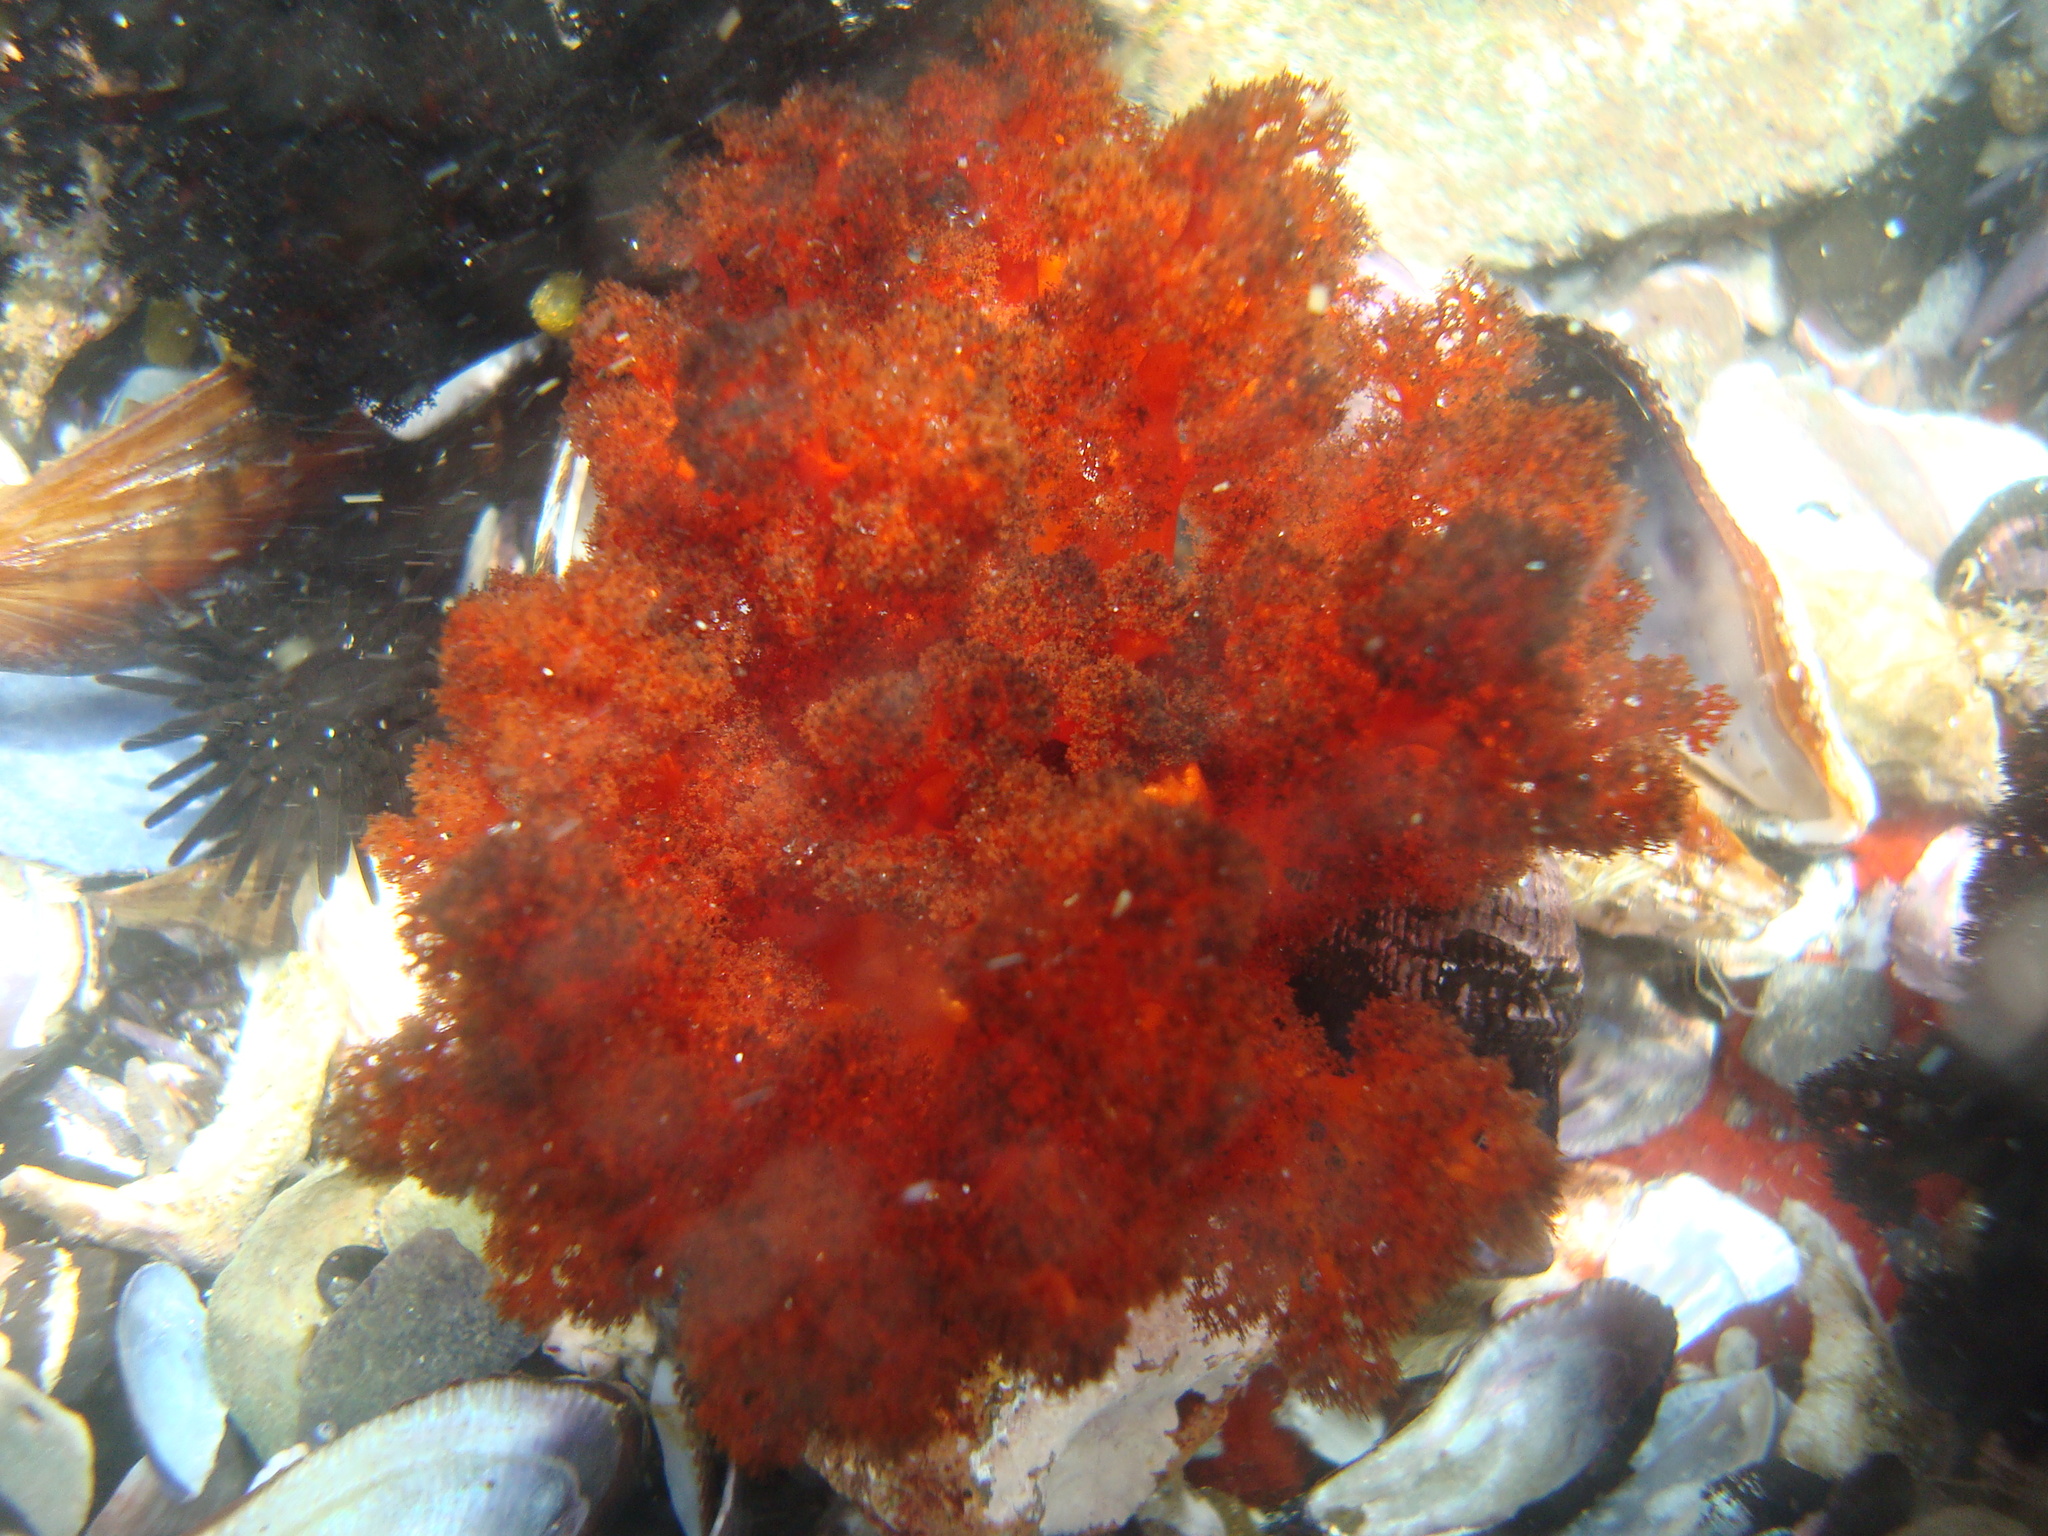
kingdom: Animalia
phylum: Echinodermata
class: Holothuroidea
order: Dendrochirotida
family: Cucumariidae
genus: Pattalus
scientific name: Pattalus mollis
